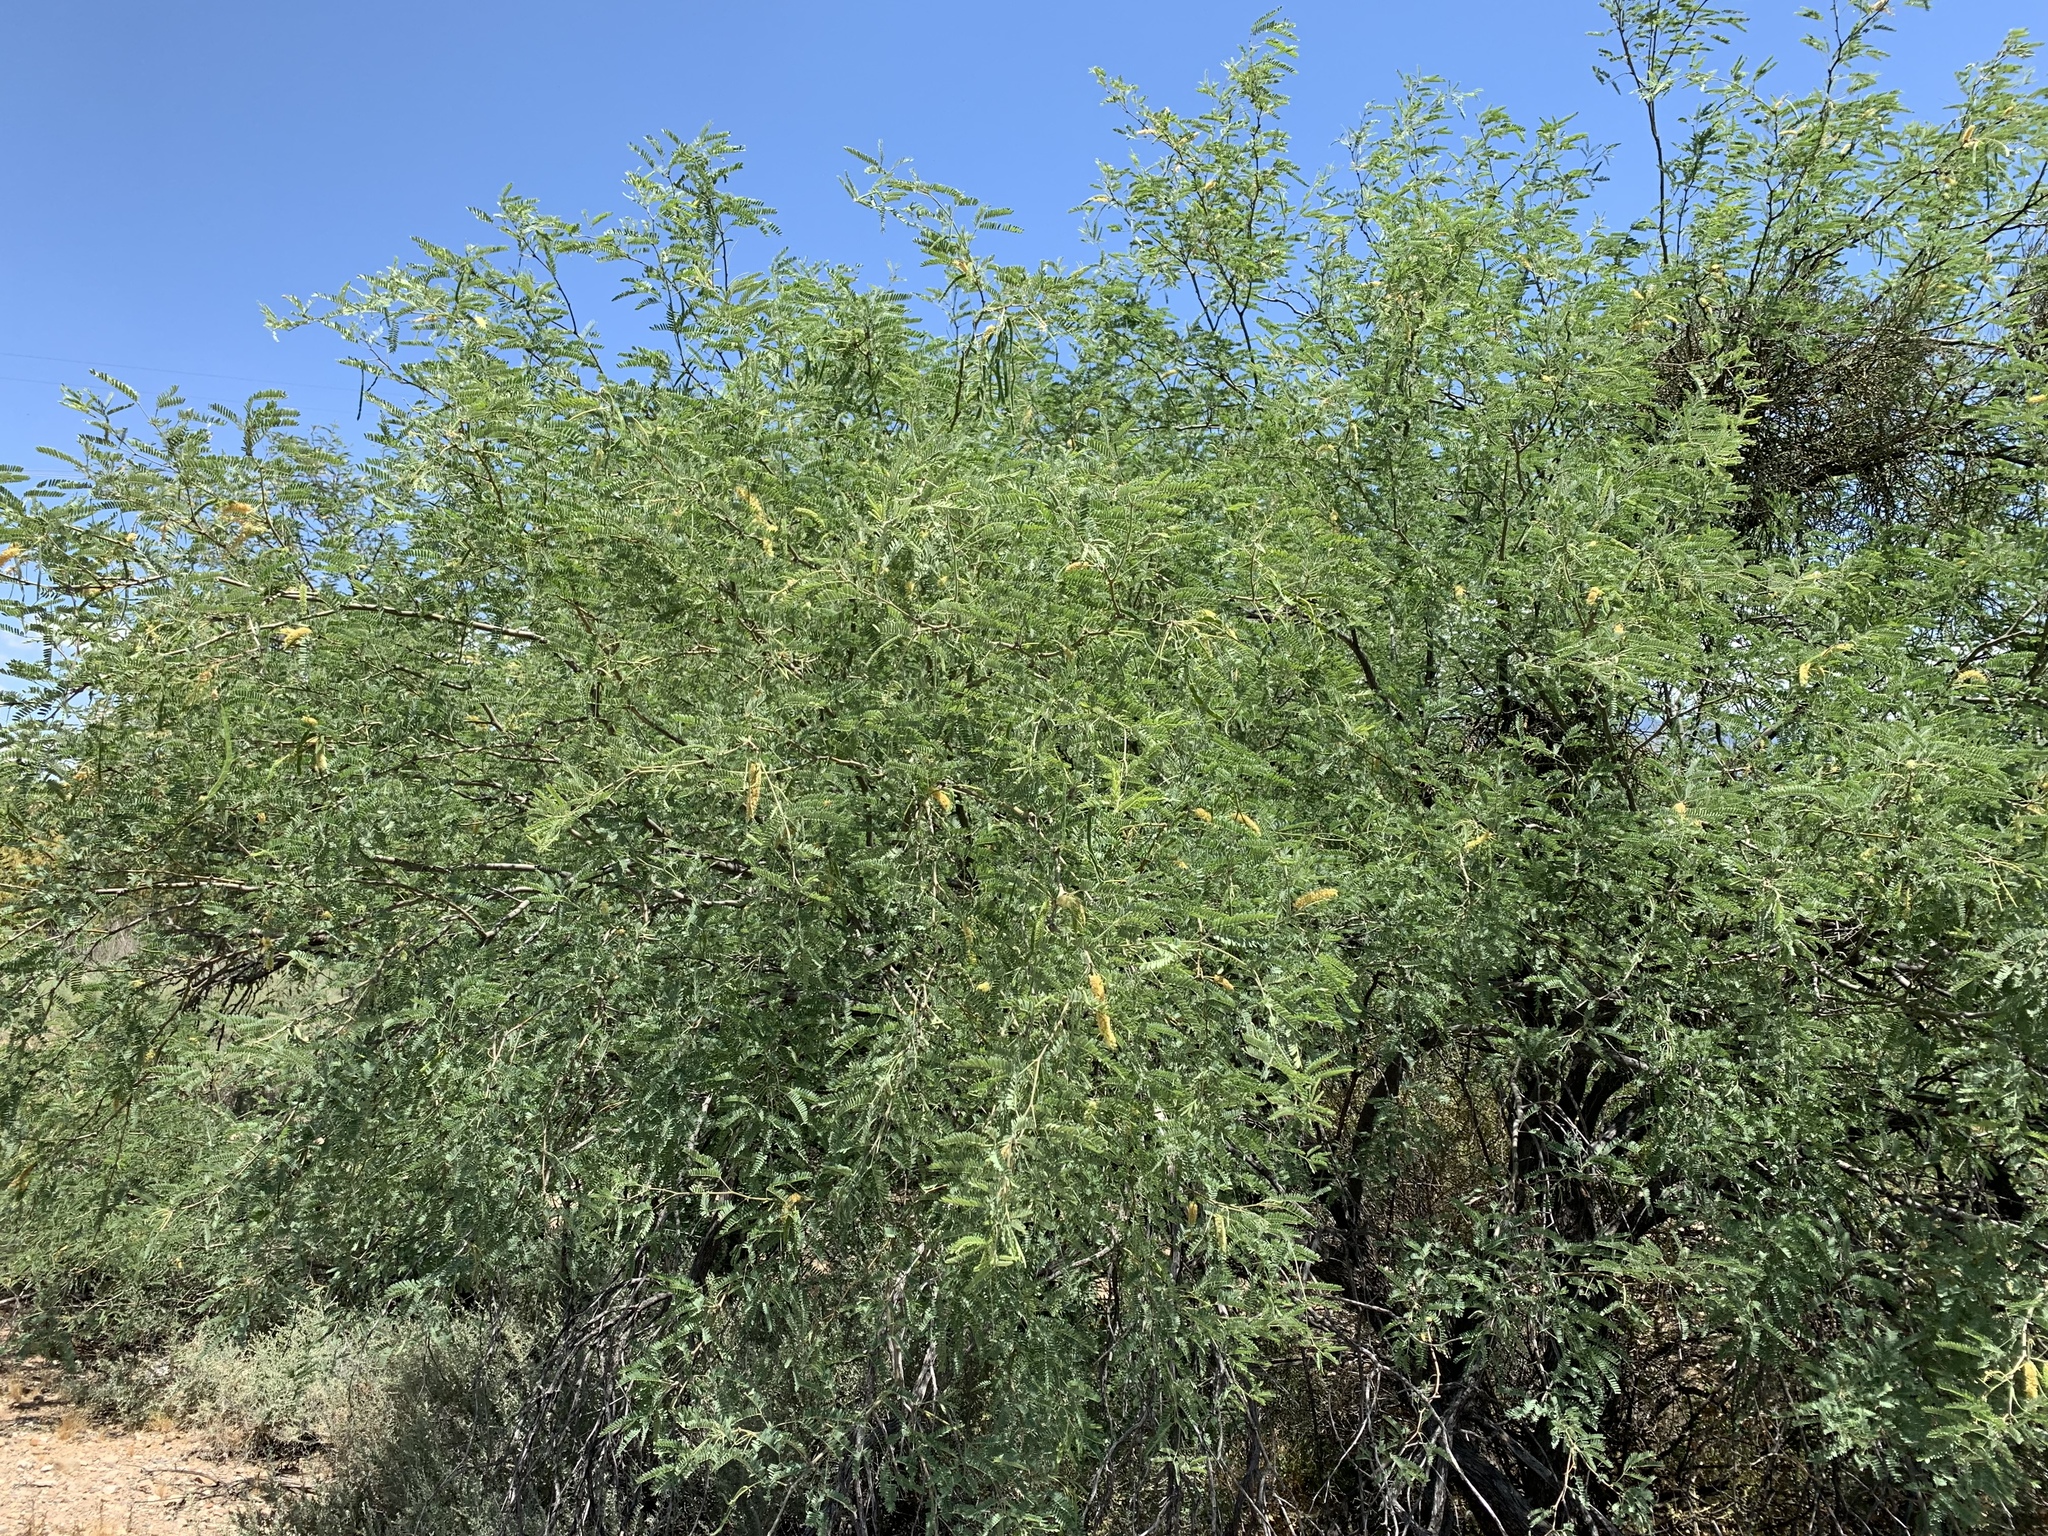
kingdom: Plantae
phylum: Tracheophyta
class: Magnoliopsida
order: Fabales
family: Fabaceae
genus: Prosopis
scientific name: Prosopis velutina
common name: Velvet mesquite
